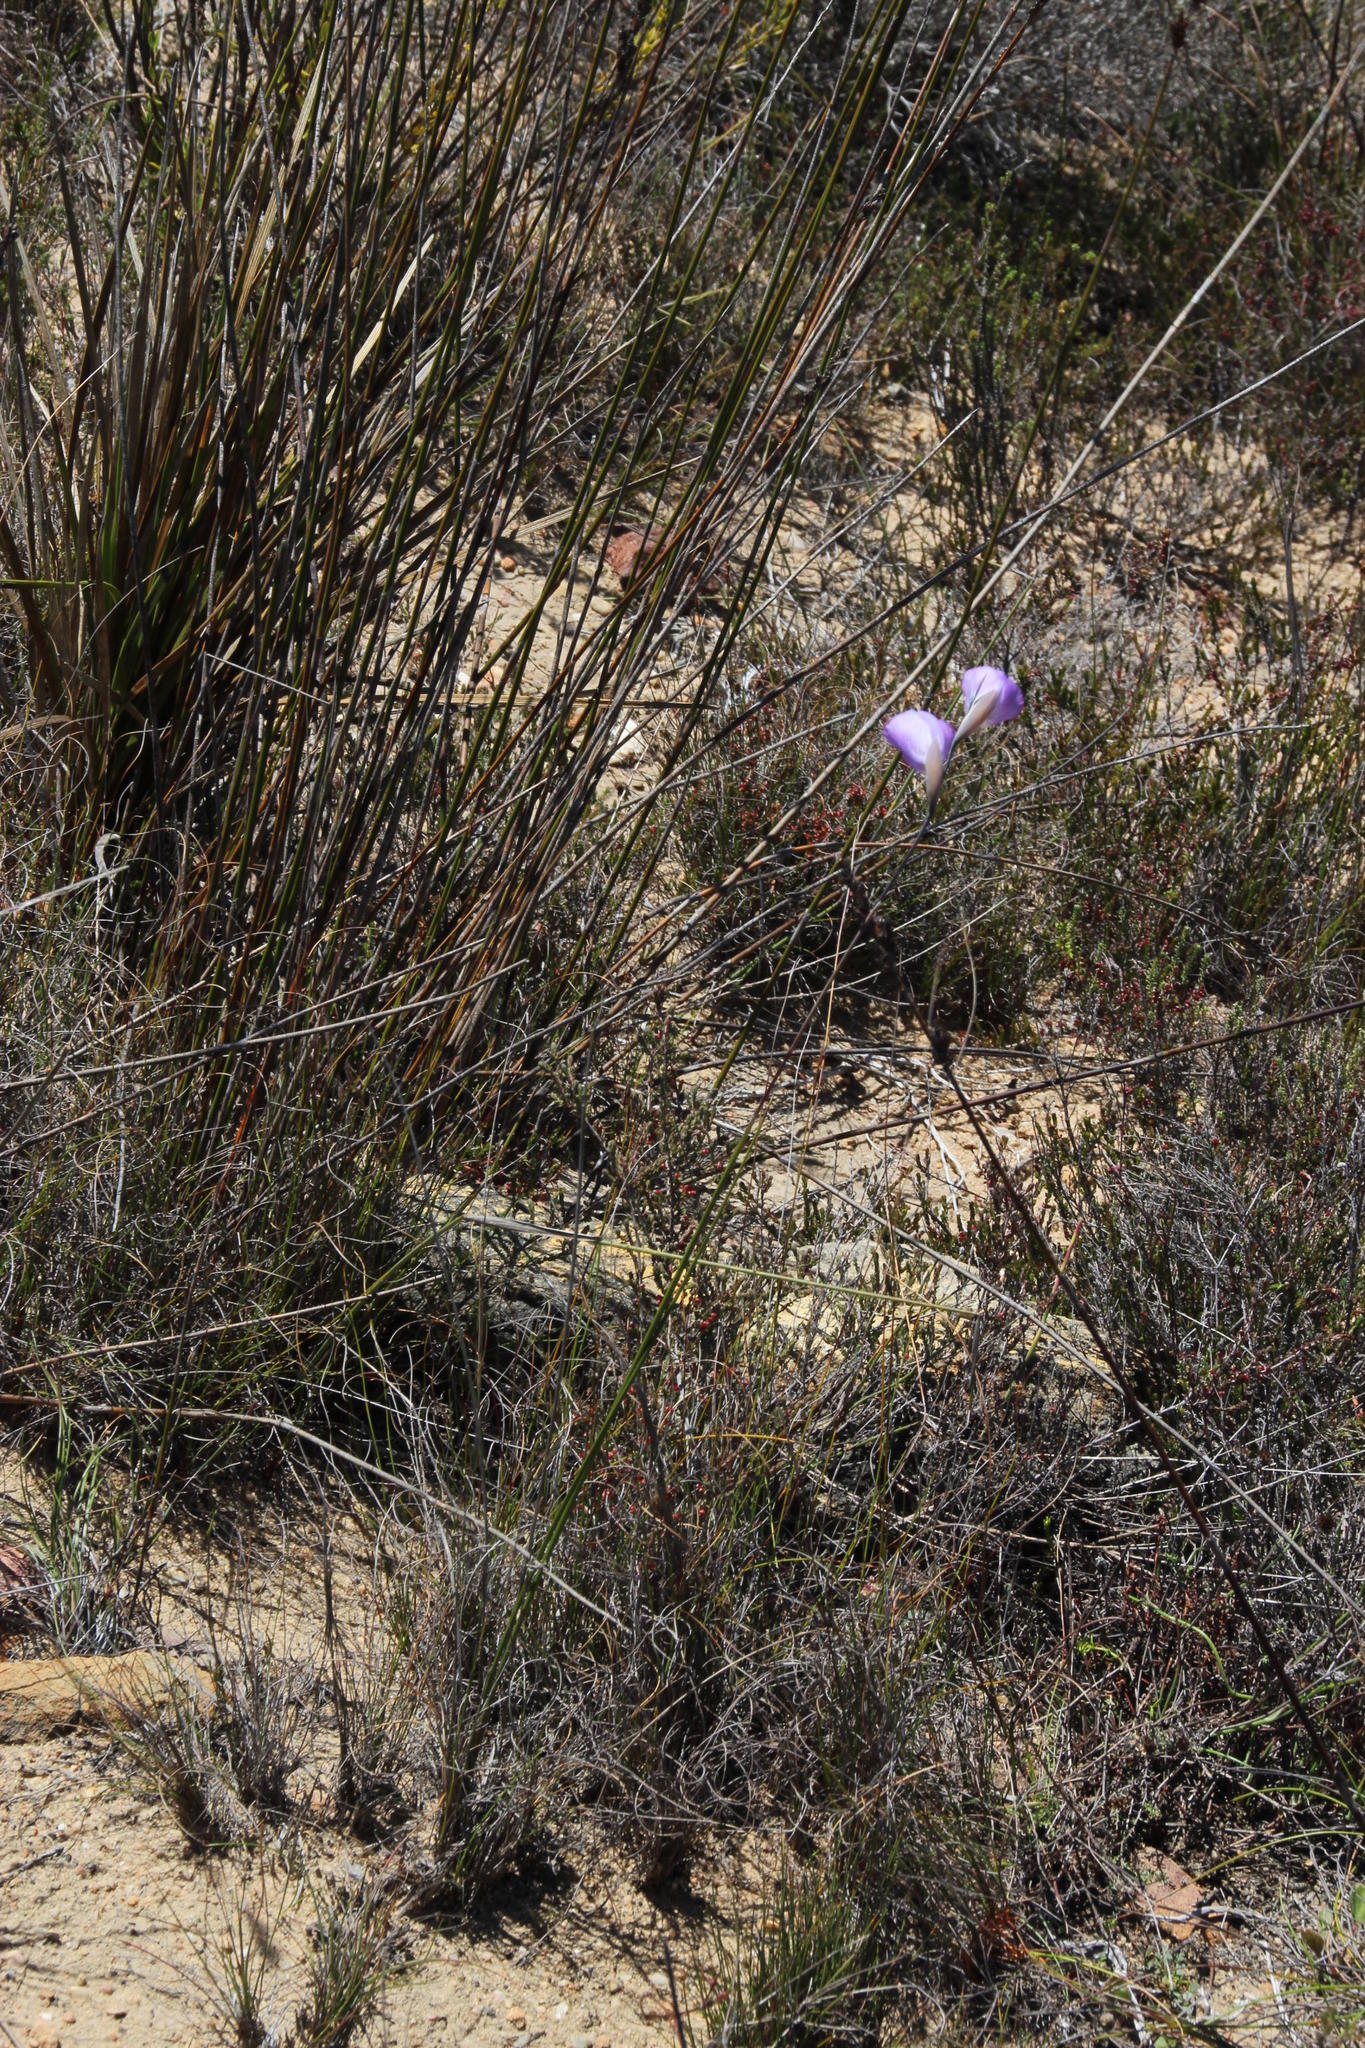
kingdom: Plantae
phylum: Tracheophyta
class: Liliopsida
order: Asparagales
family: Iridaceae
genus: Gladiolus
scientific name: Gladiolus rogersii
